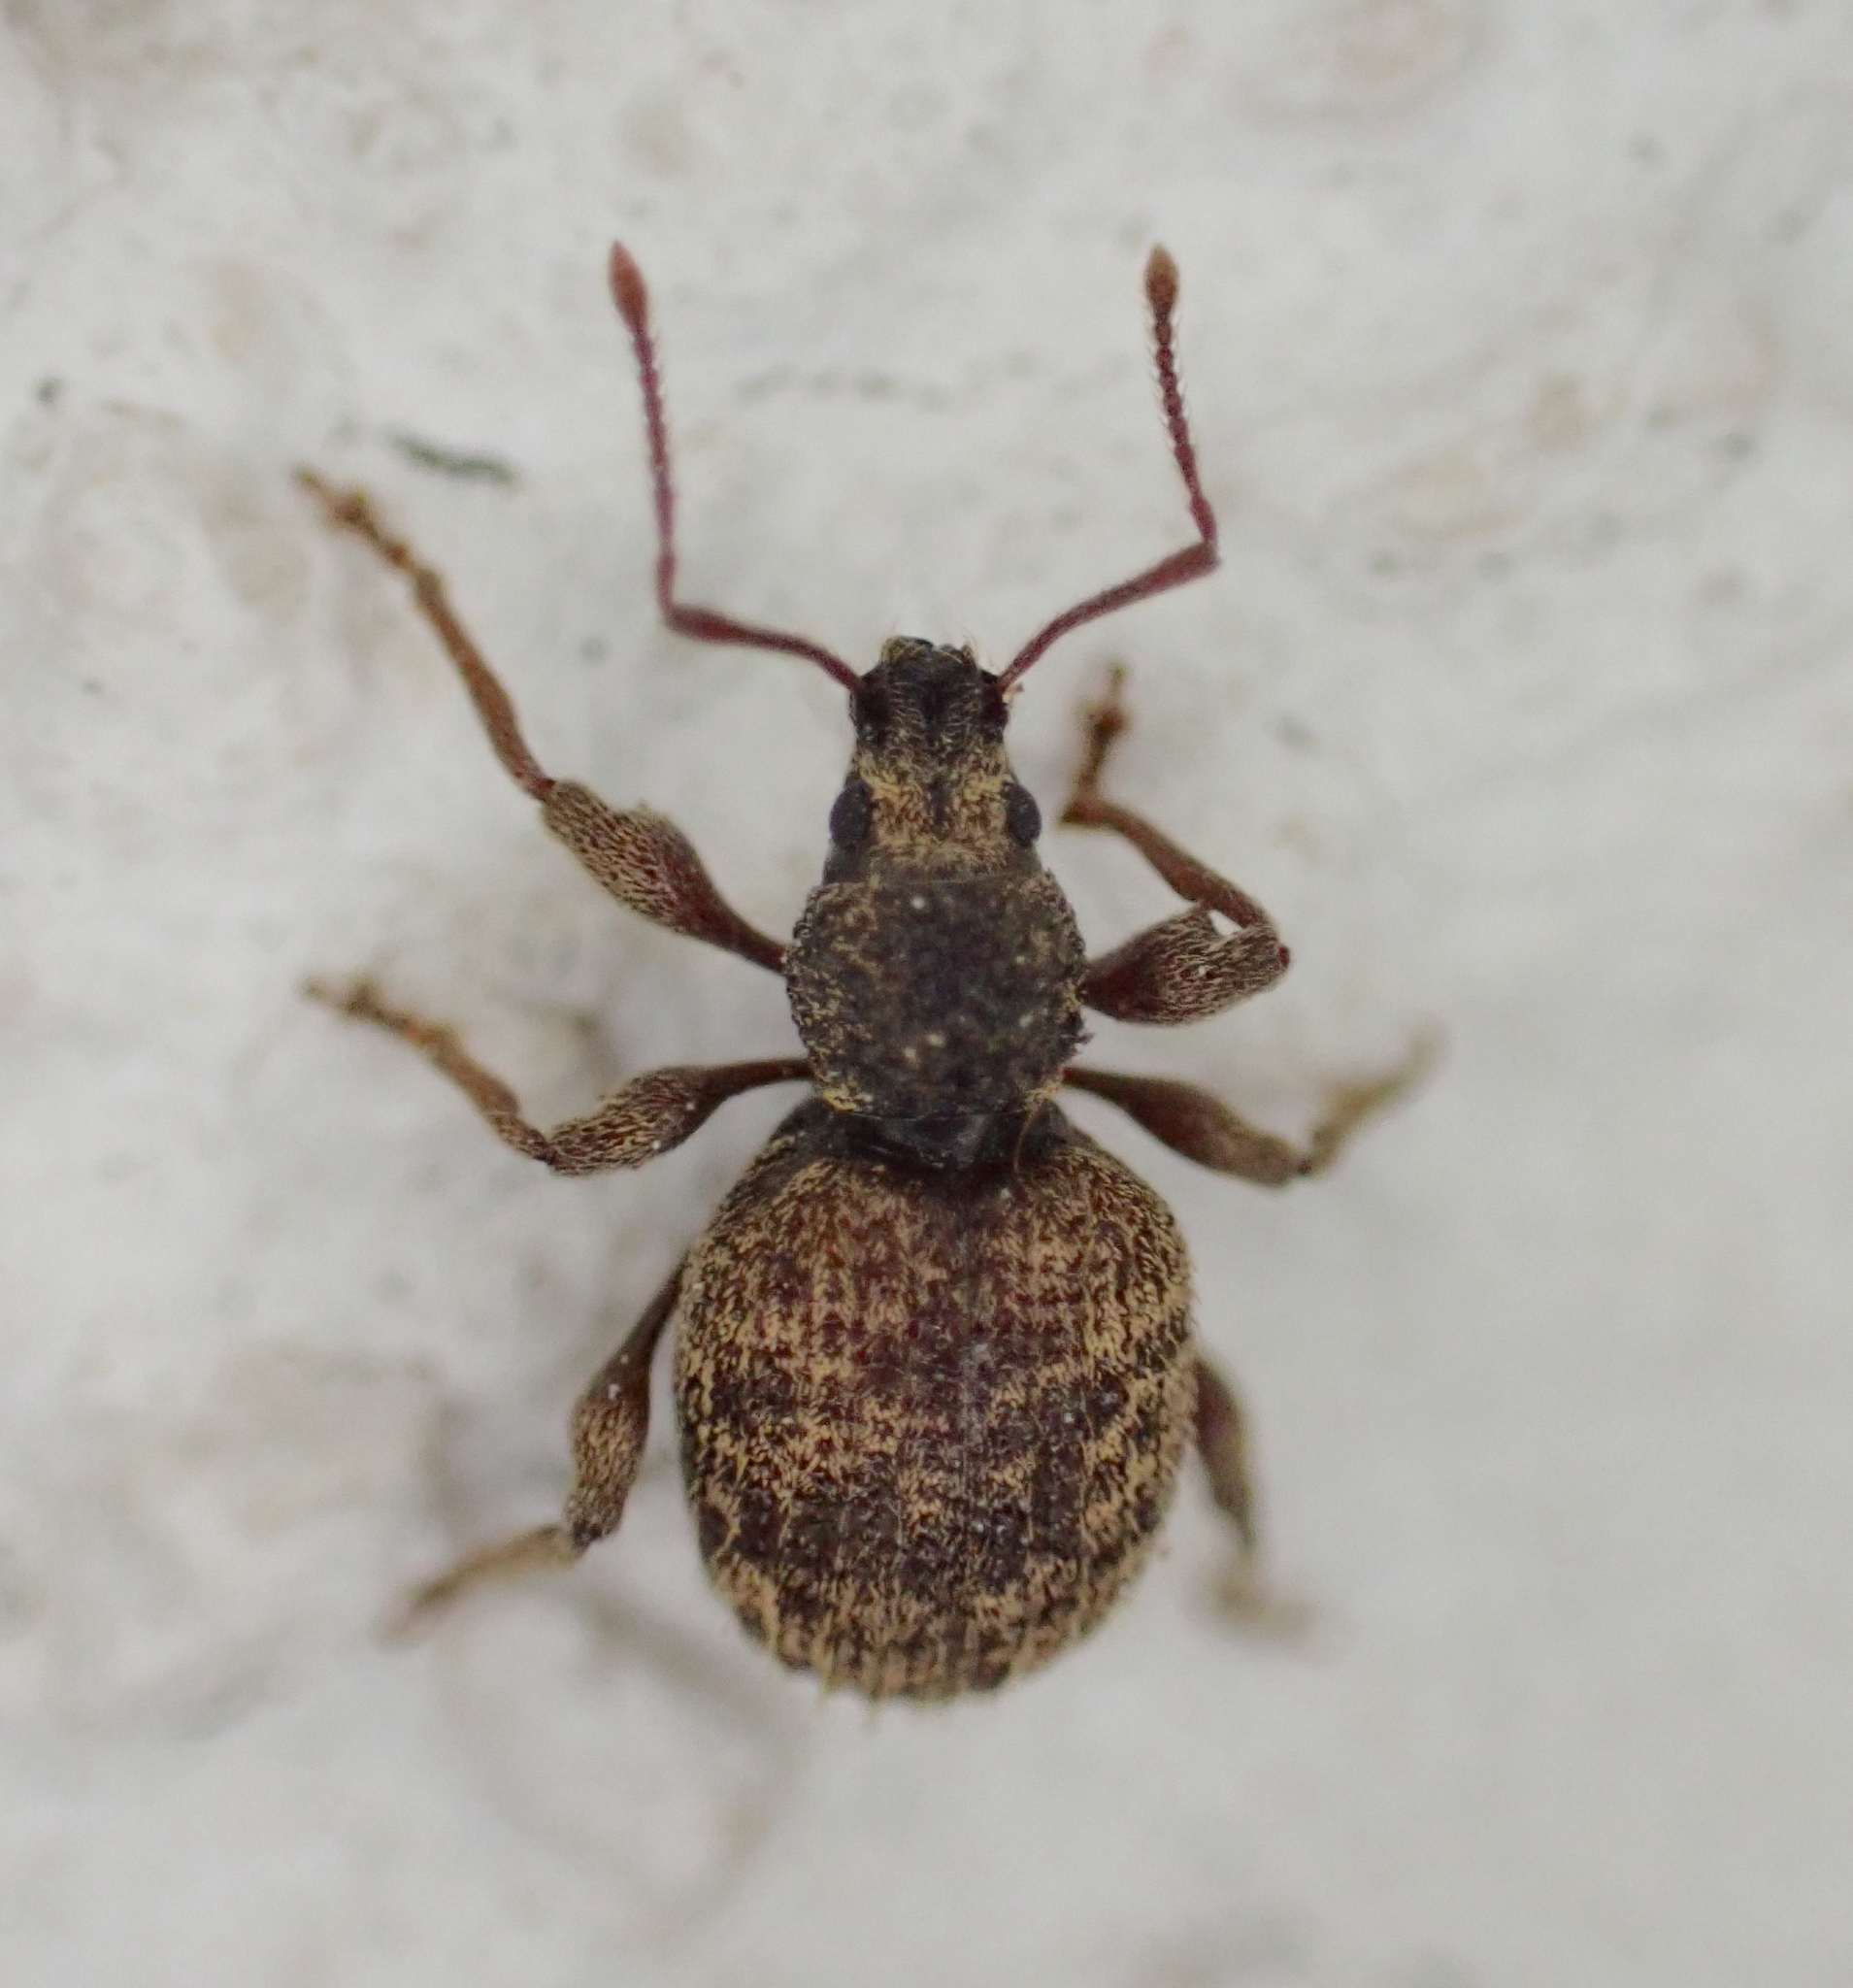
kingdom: Animalia
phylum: Arthropoda
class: Insecta
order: Coleoptera
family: Curculionidae
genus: Otiorhynchus
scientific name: Otiorhynchus crataegi
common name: Privet weevil
